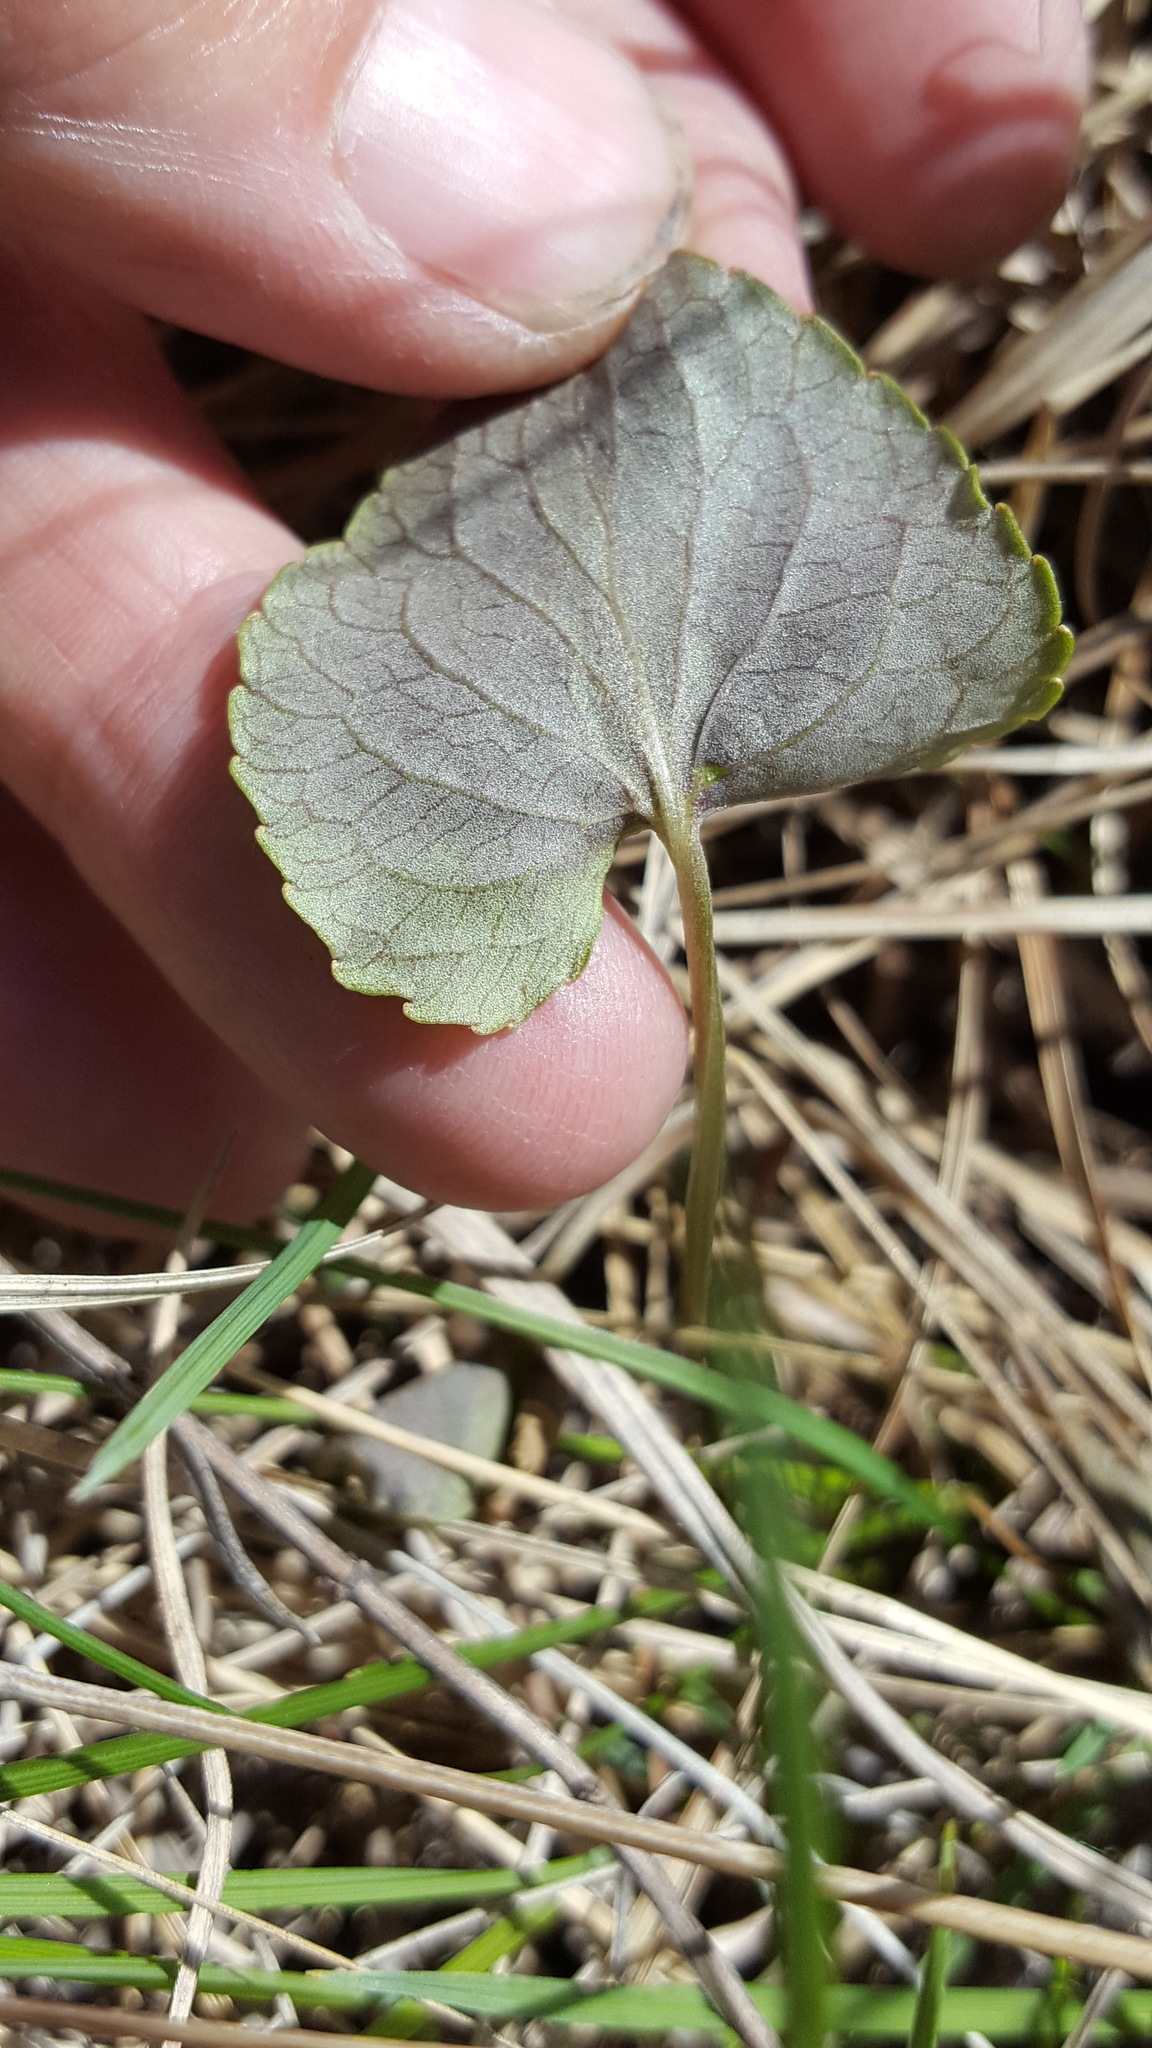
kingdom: Plantae
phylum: Tracheophyta
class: Magnoliopsida
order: Malpighiales
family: Violaceae
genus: Viola
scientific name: Viola nephrophylla
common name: Blue meadow violet
